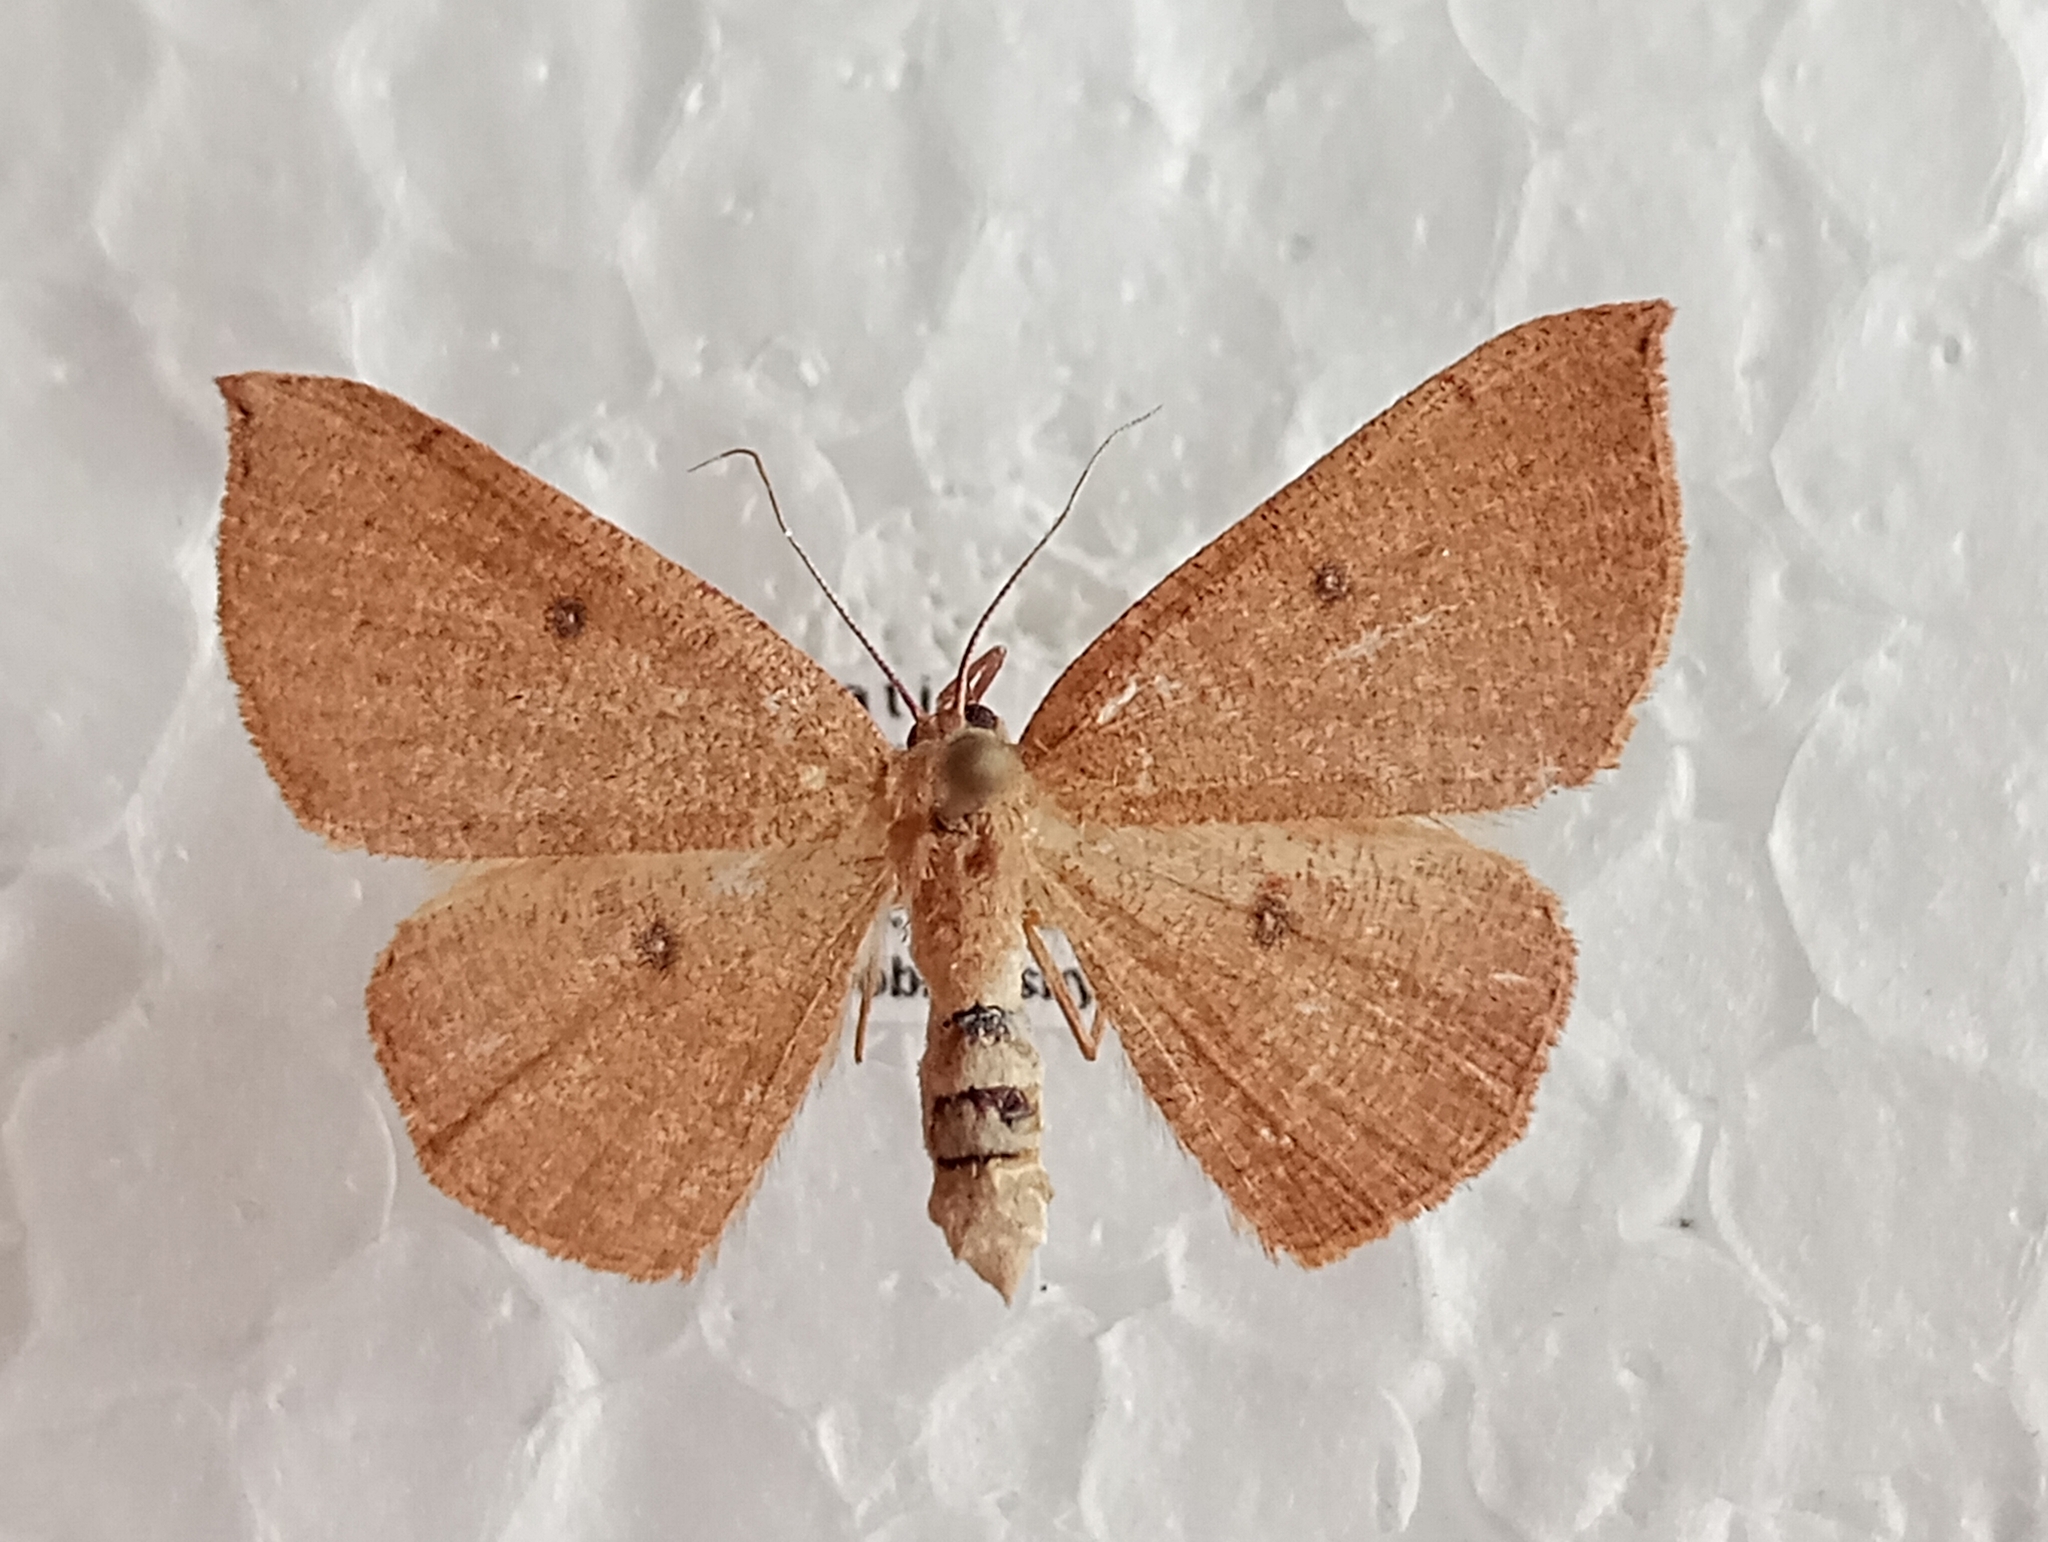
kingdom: Animalia
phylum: Arthropoda
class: Insecta
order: Lepidoptera
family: Geometridae
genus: Cyclophora
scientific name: Cyclophora puppillaria
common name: Blair's mocha
